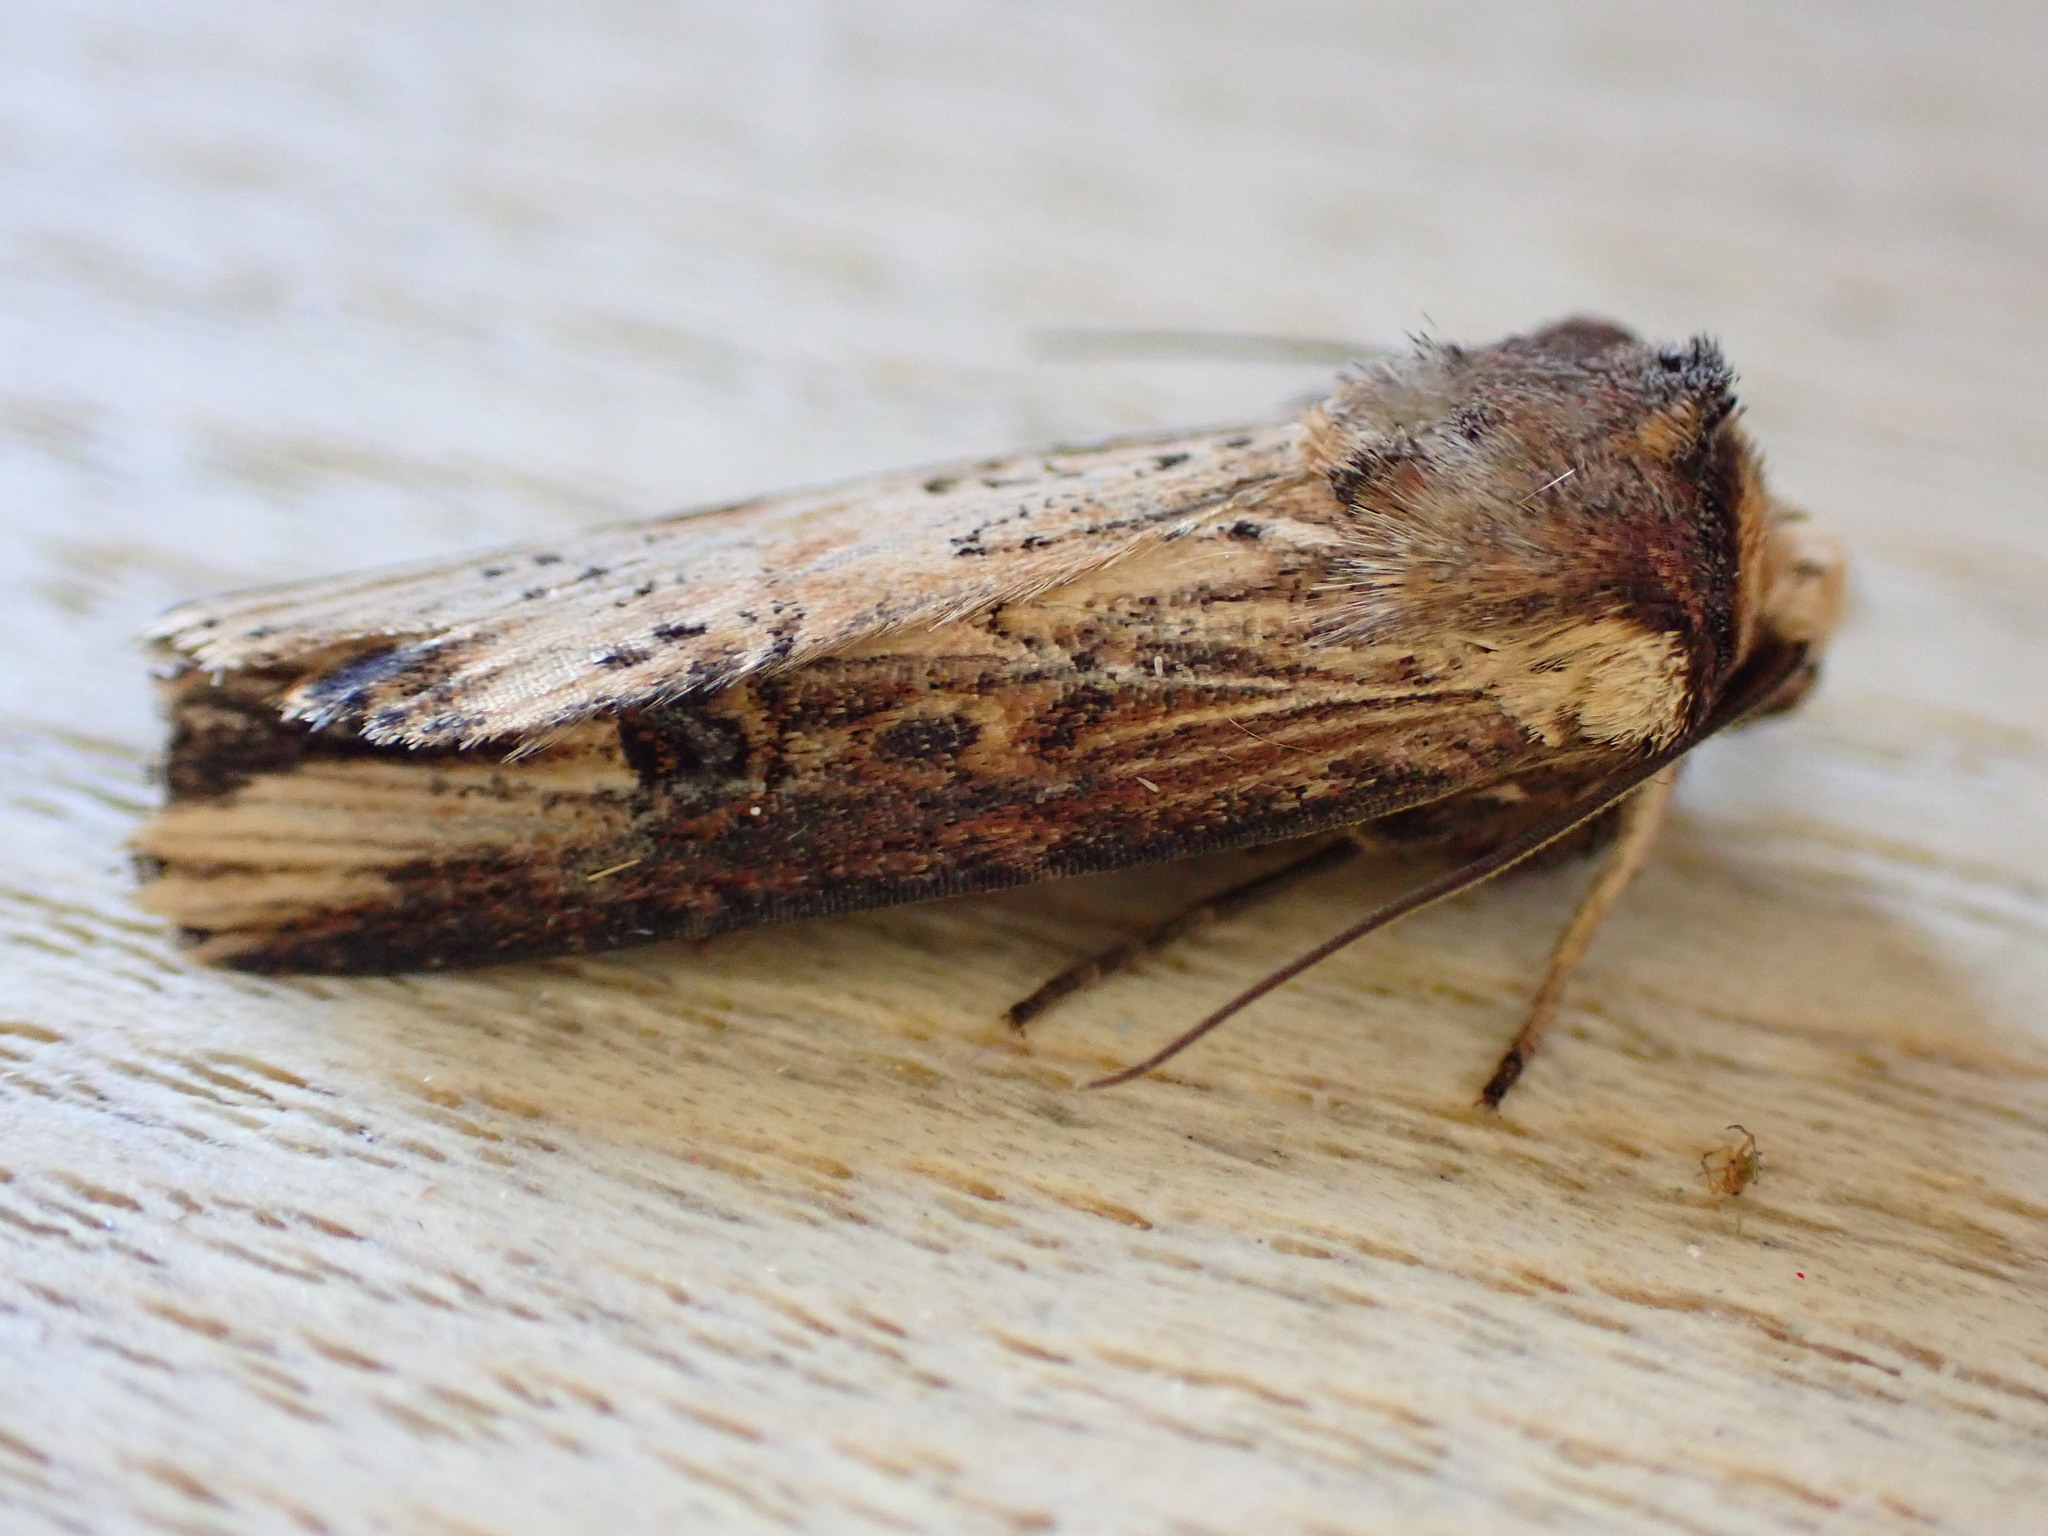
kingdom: Animalia
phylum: Arthropoda
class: Insecta
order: Lepidoptera
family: Noctuidae
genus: Axylia
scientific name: Axylia putris
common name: Flame
